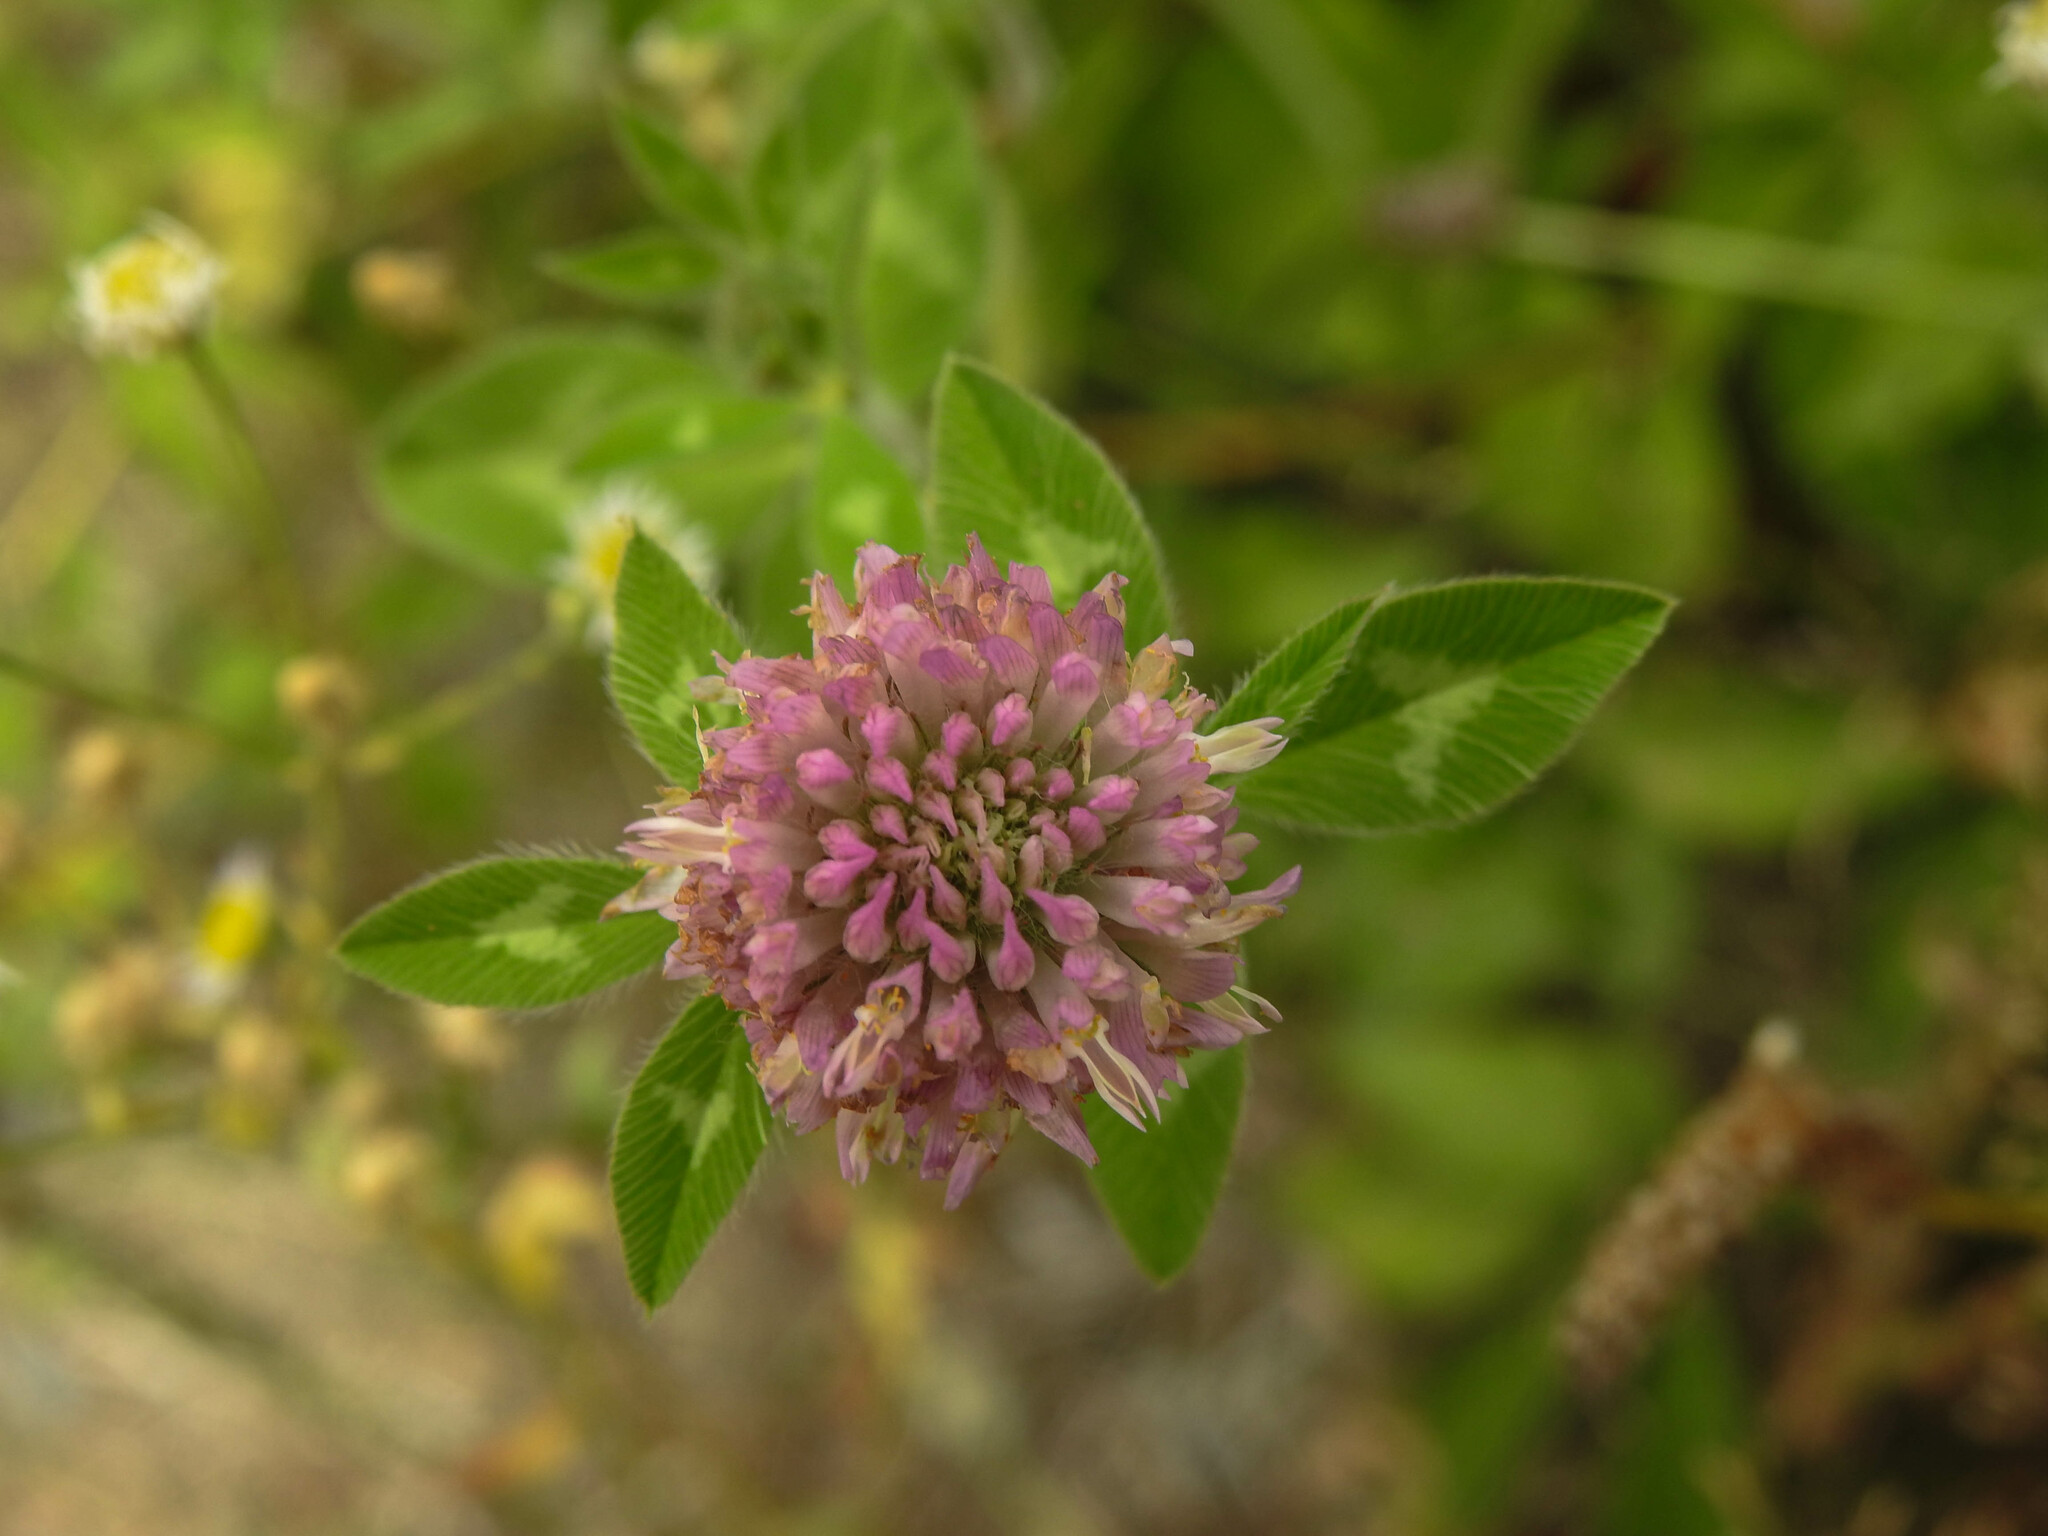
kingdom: Plantae
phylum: Tracheophyta
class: Magnoliopsida
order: Fabales
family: Fabaceae
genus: Trifolium
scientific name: Trifolium pratense
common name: Red clover
